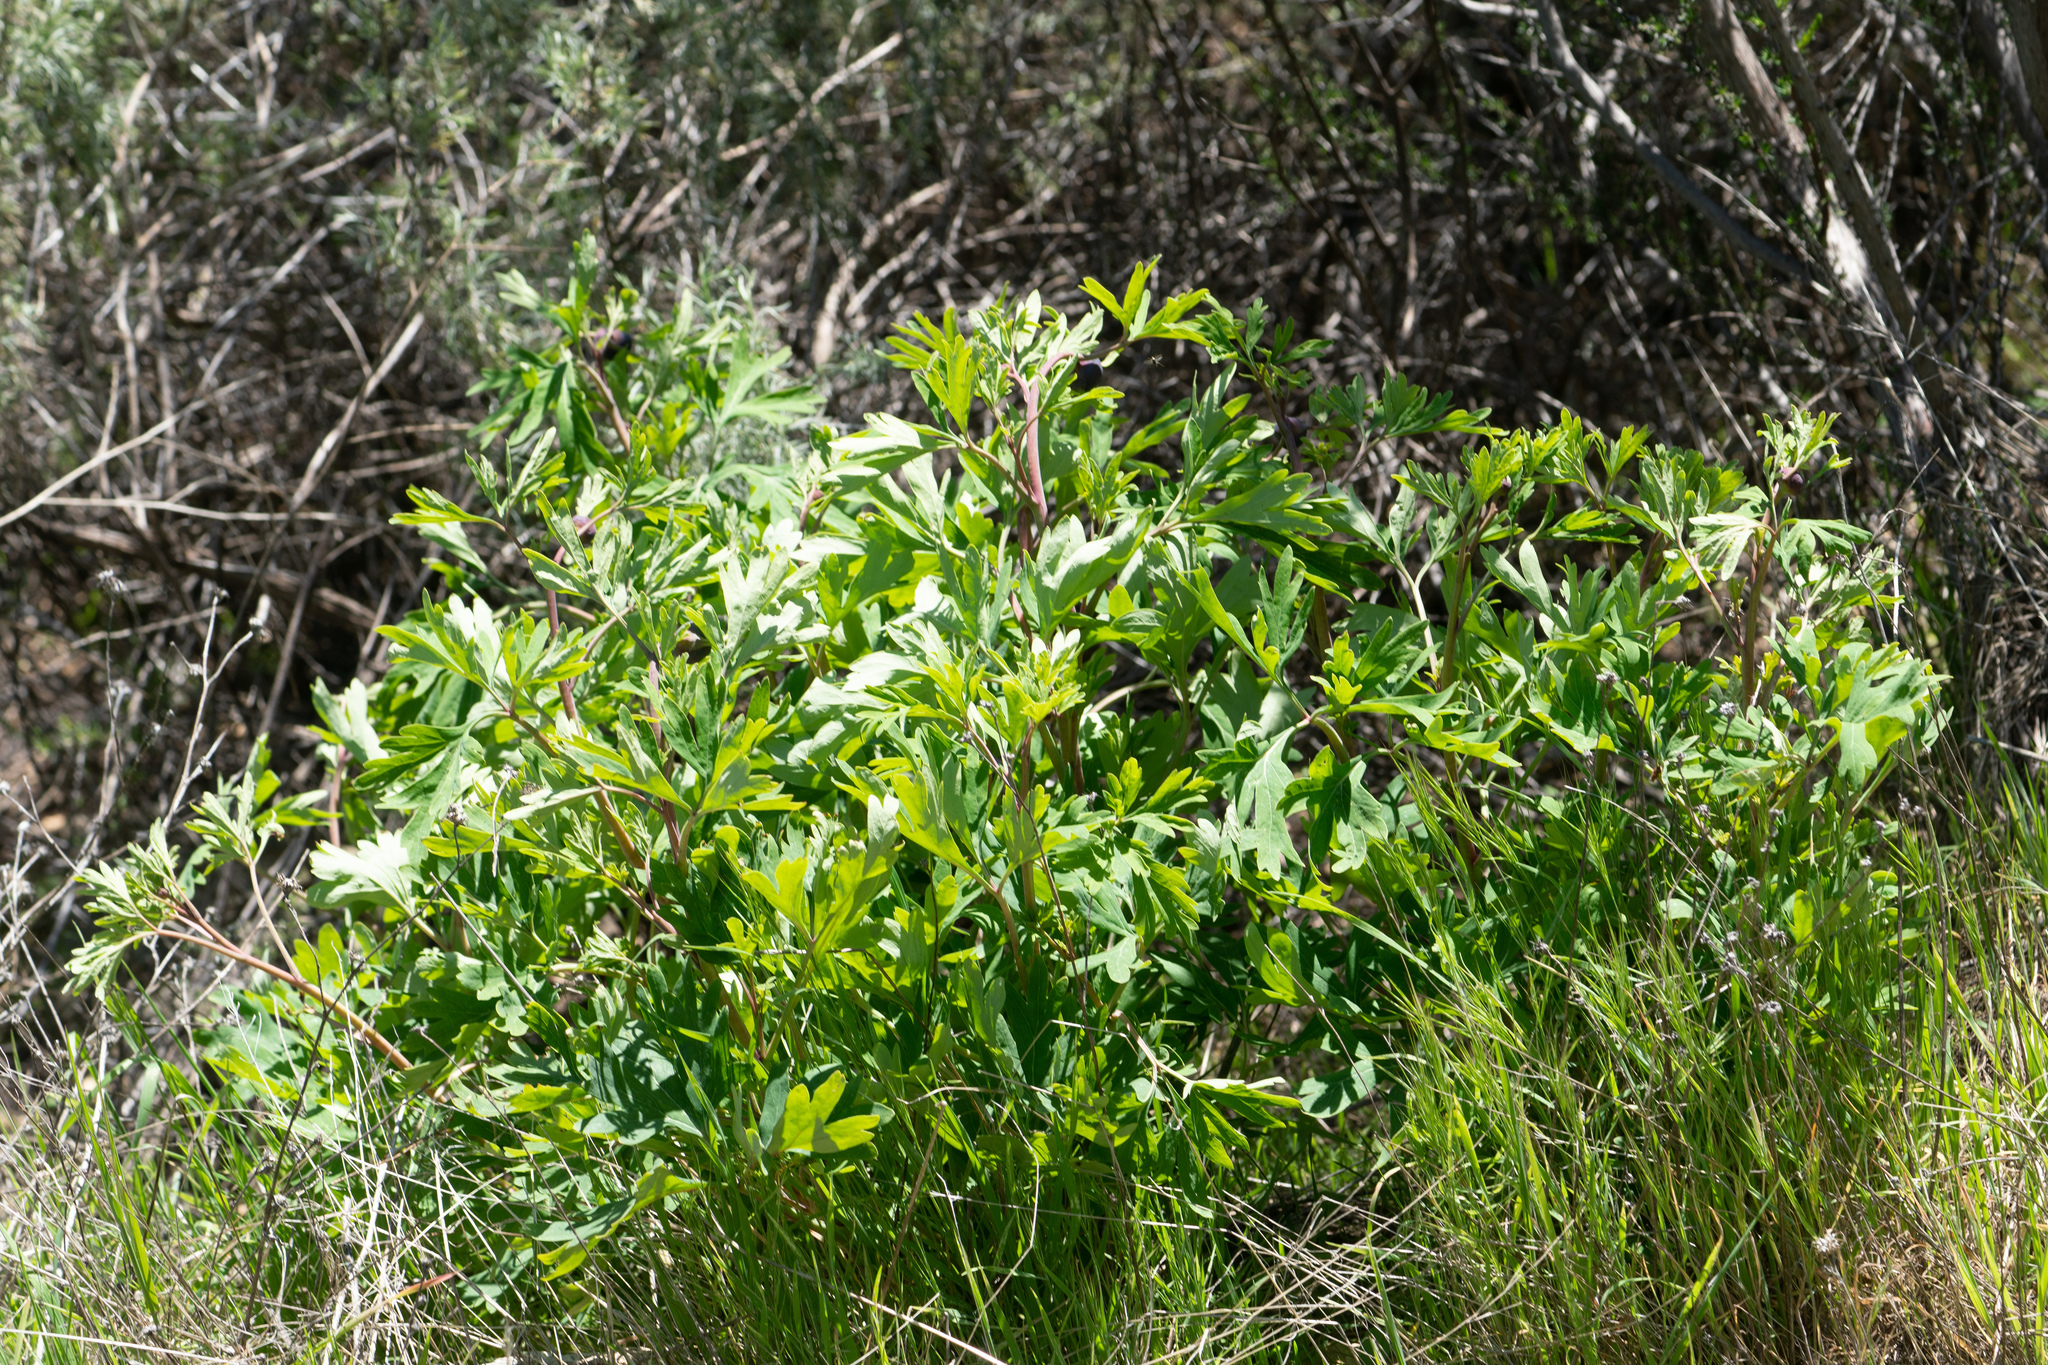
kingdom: Plantae
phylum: Tracheophyta
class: Magnoliopsida
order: Saxifragales
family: Paeoniaceae
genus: Paeonia
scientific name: Paeonia californica
